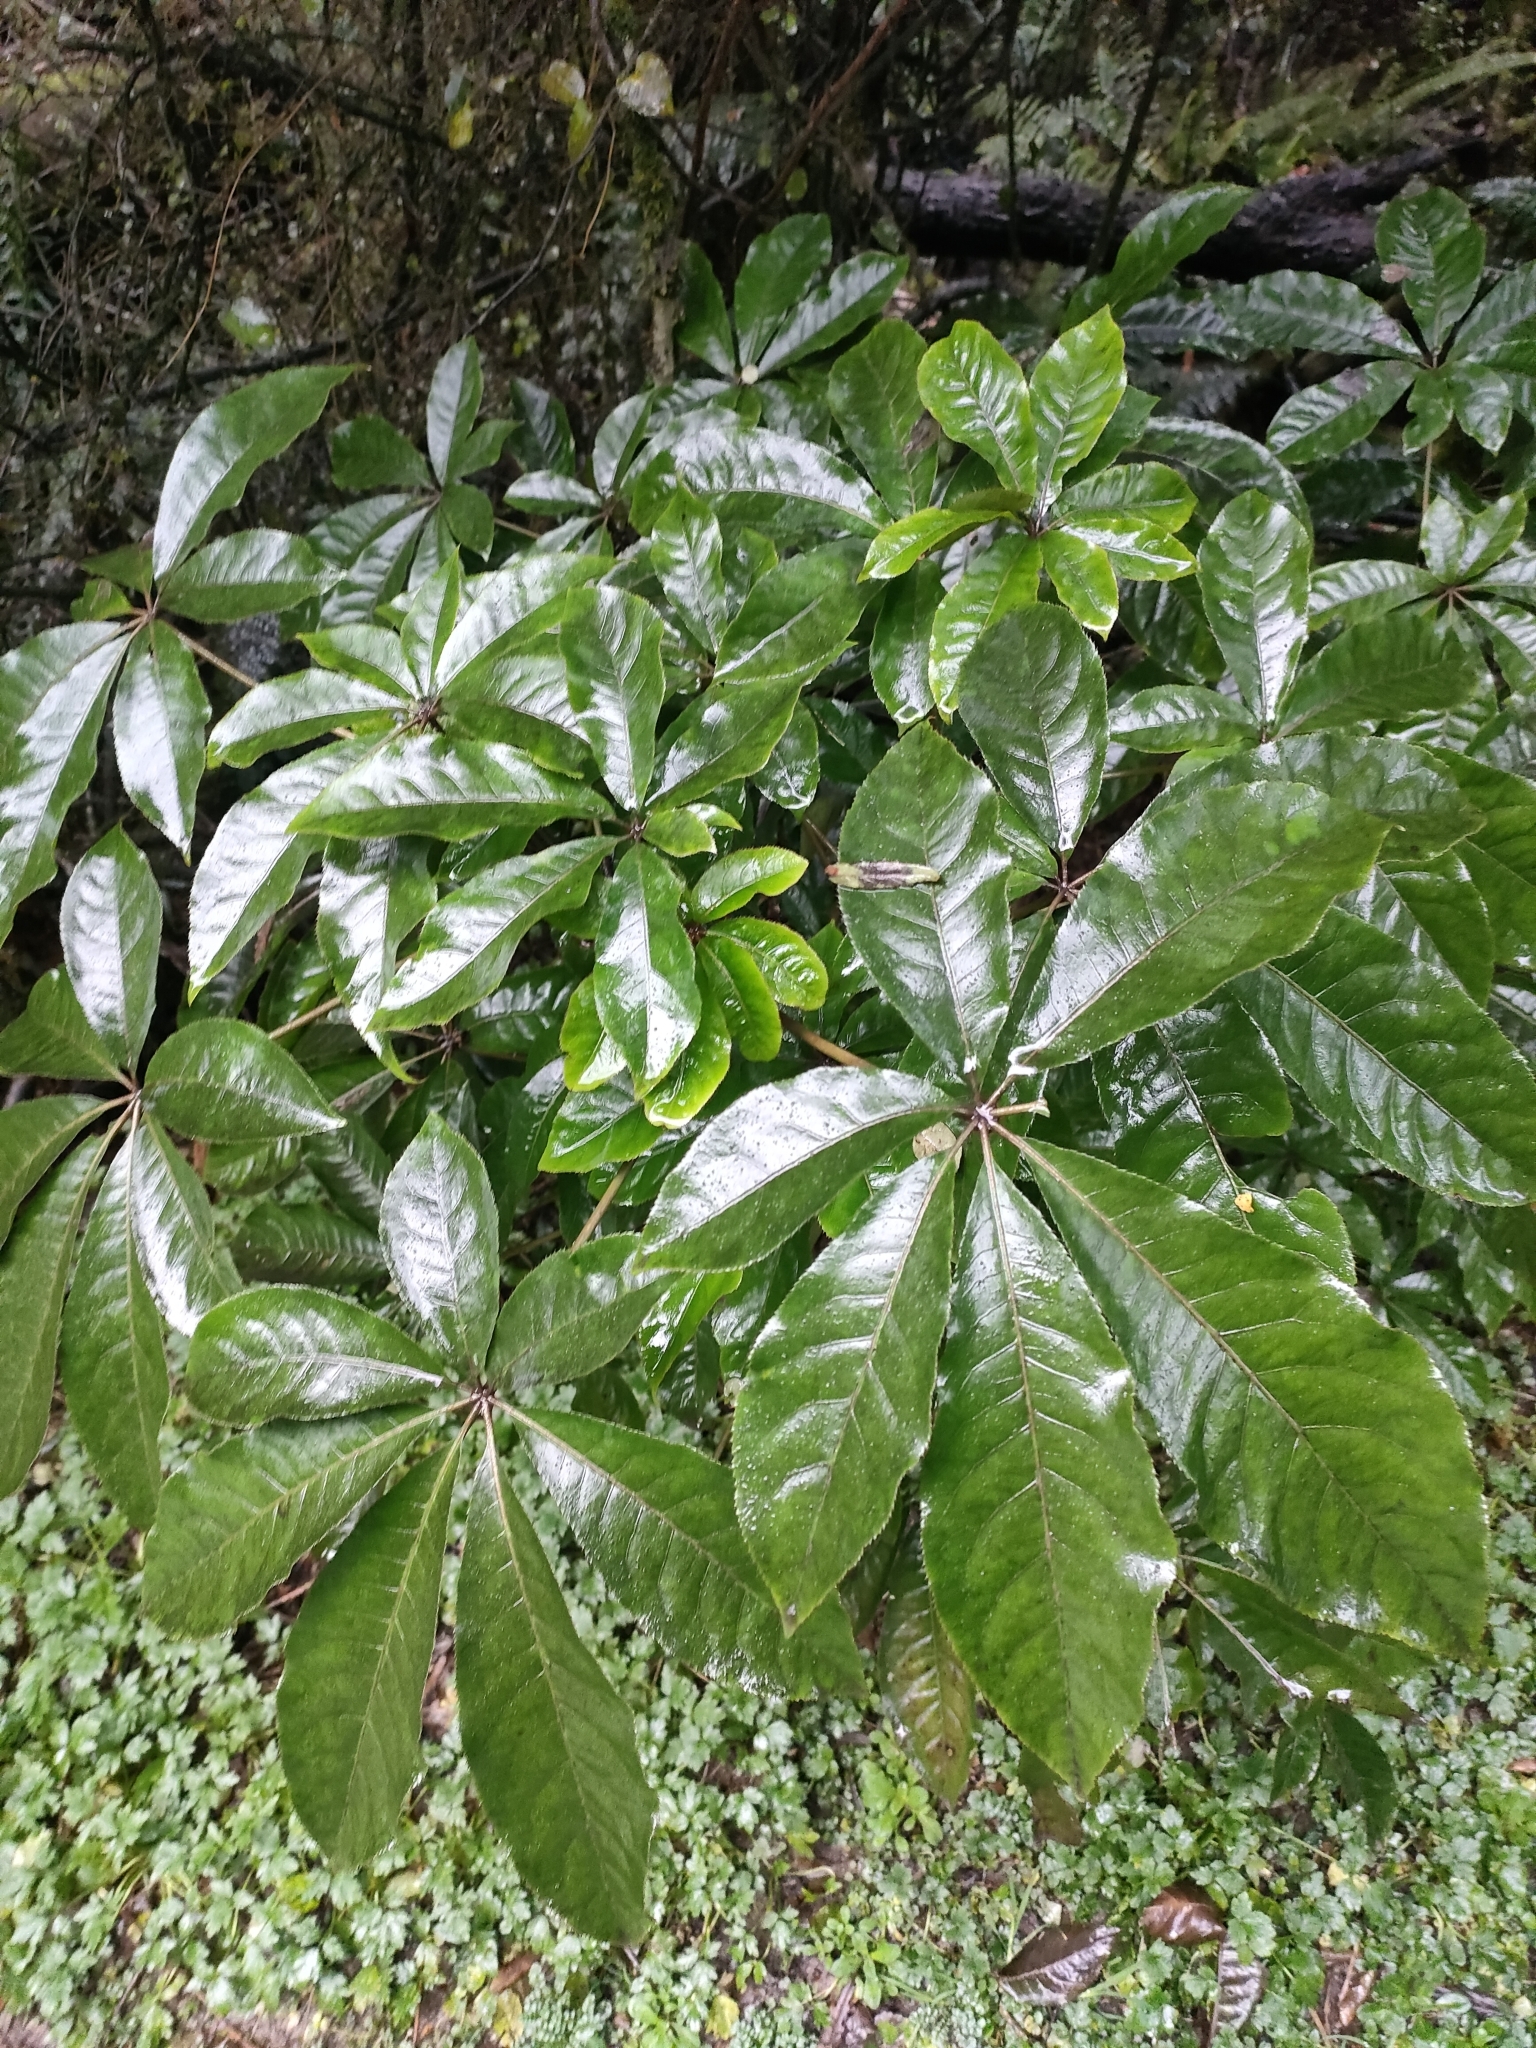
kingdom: Plantae
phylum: Tracheophyta
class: Magnoliopsida
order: Apiales
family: Araliaceae
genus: Schefflera
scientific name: Schefflera digitata
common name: Pate
